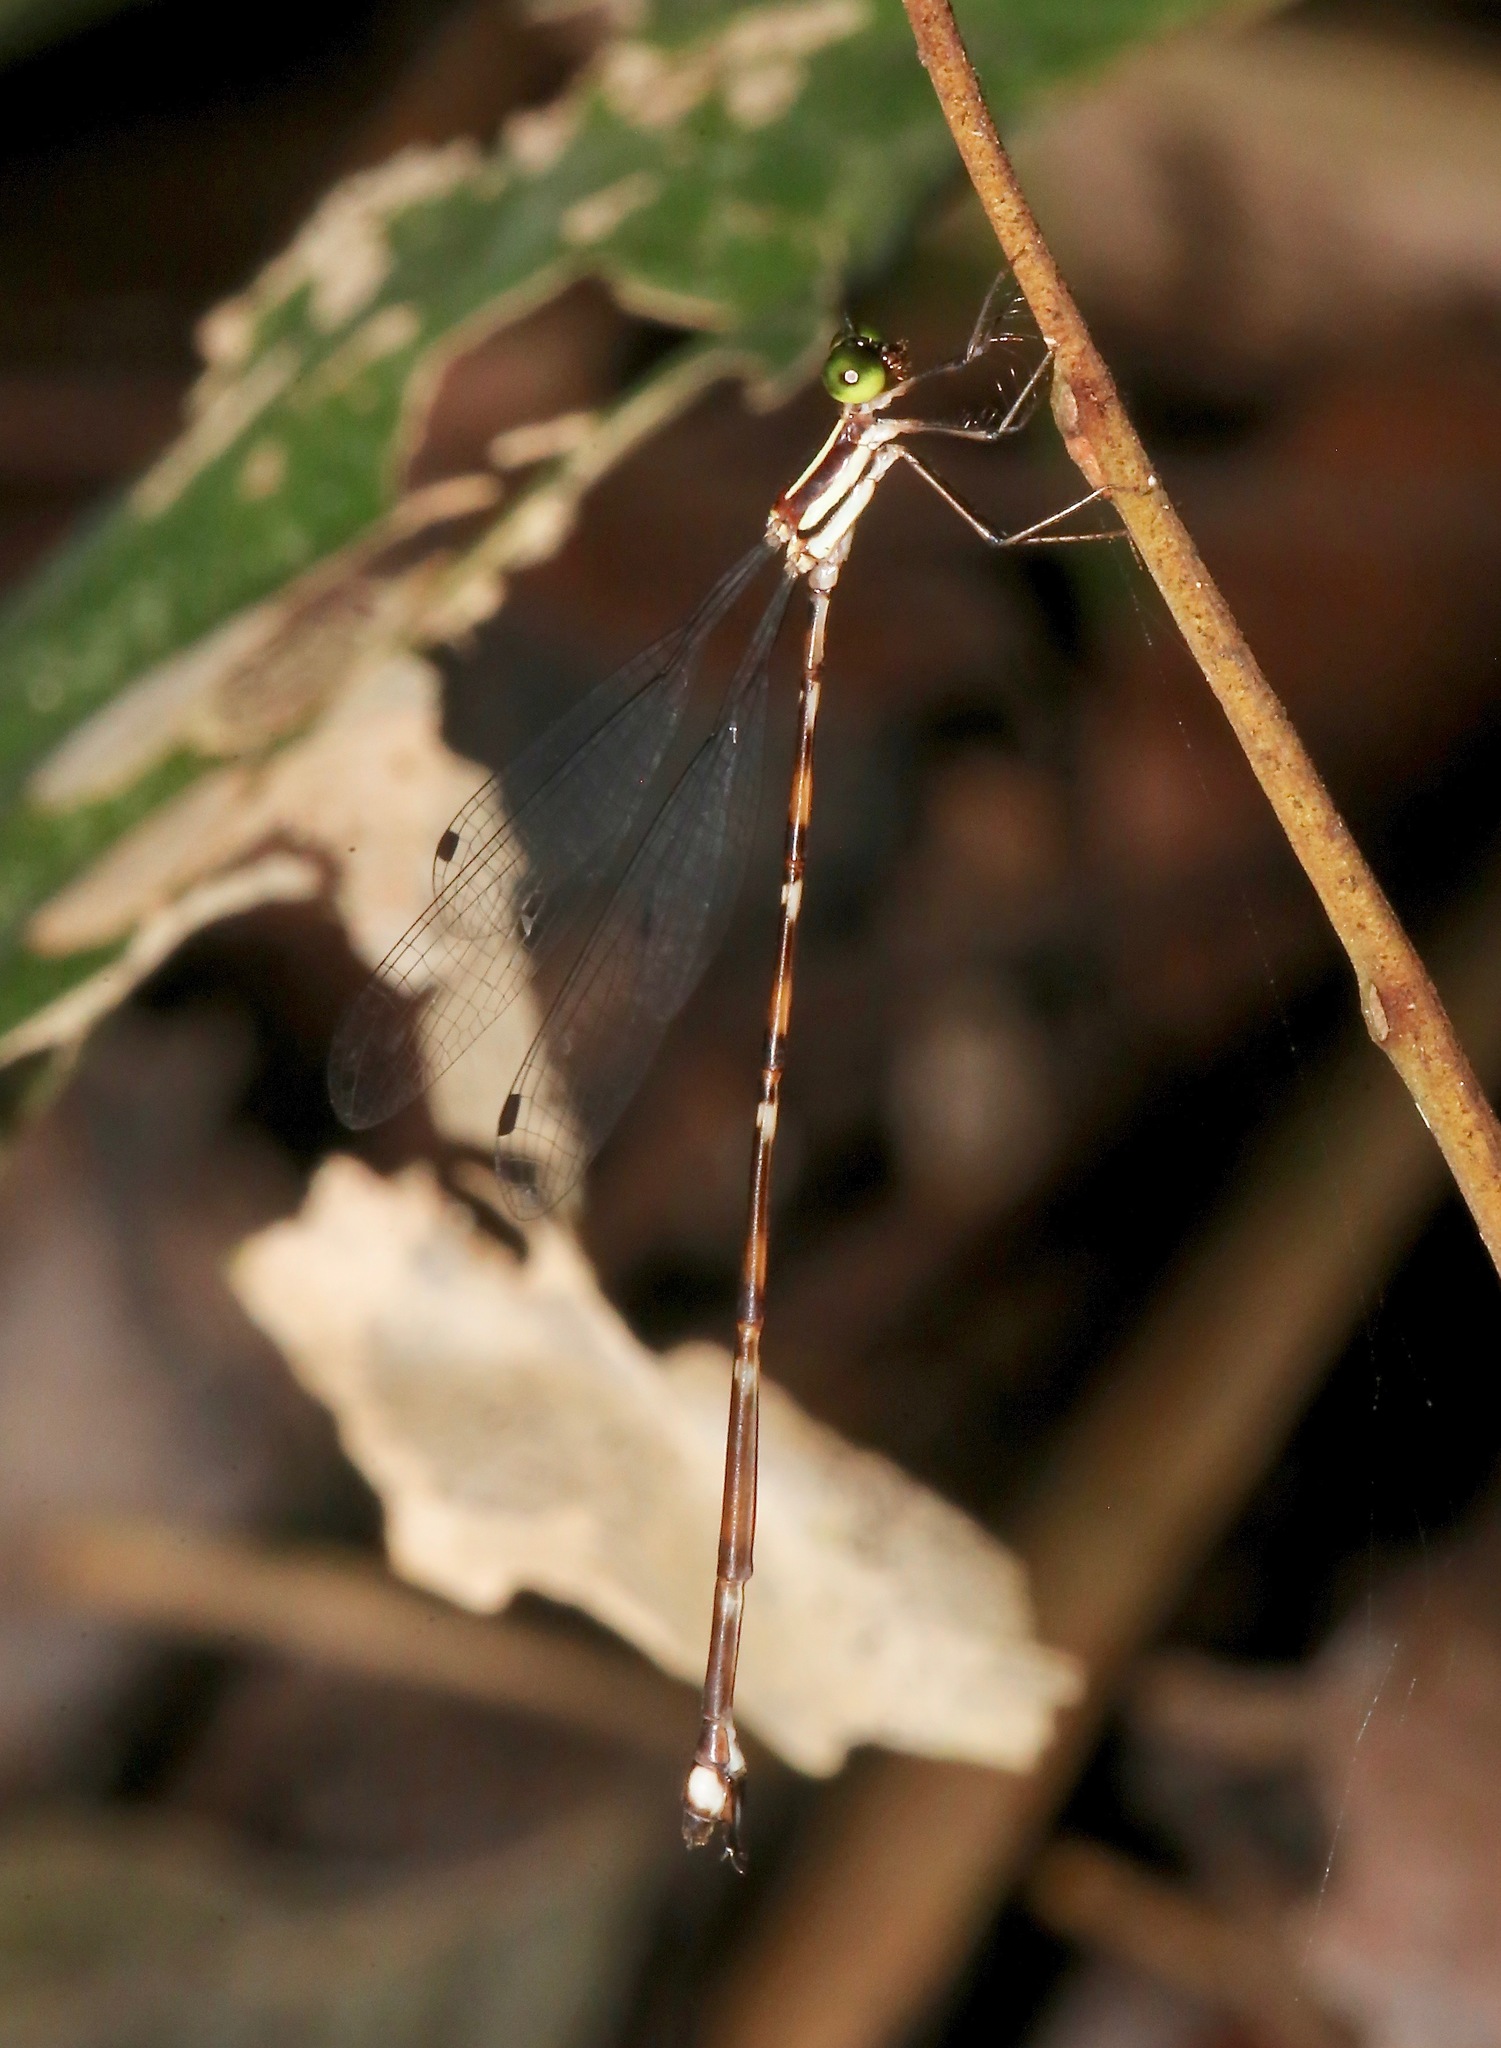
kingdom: Animalia
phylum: Arthropoda
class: Insecta
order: Odonata
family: Perilestidae
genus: Perissolestes
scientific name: Perissolestes remotus
